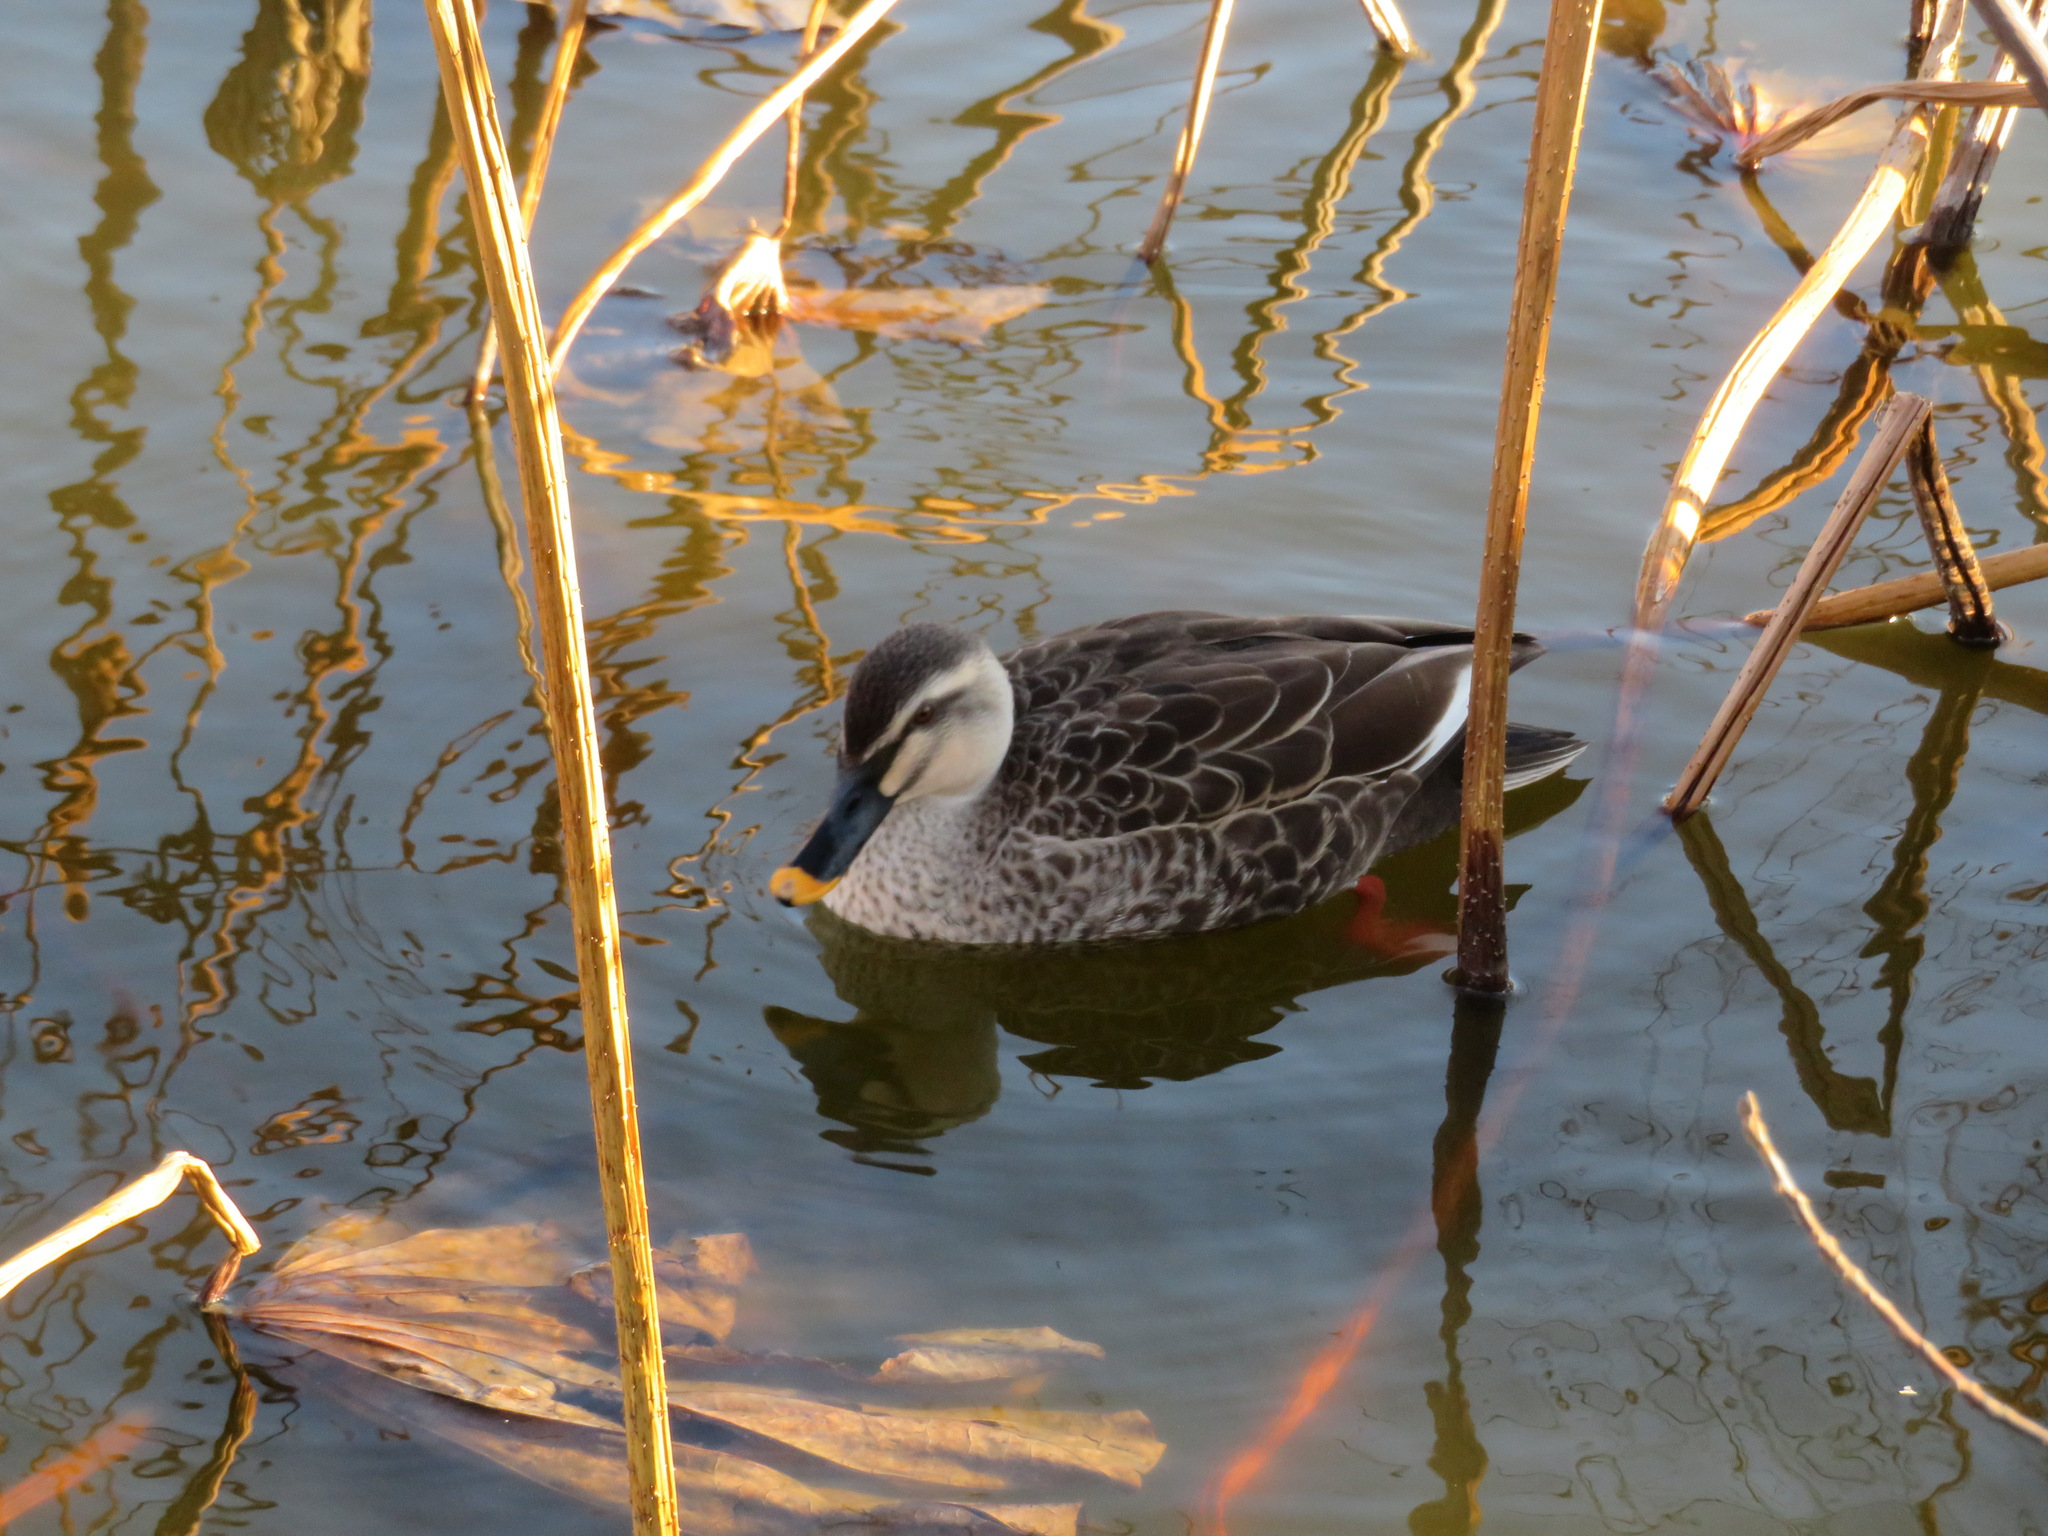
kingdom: Animalia
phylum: Chordata
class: Aves
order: Anseriformes
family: Anatidae
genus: Anas
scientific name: Anas zonorhyncha
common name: Eastern spot-billed duck
